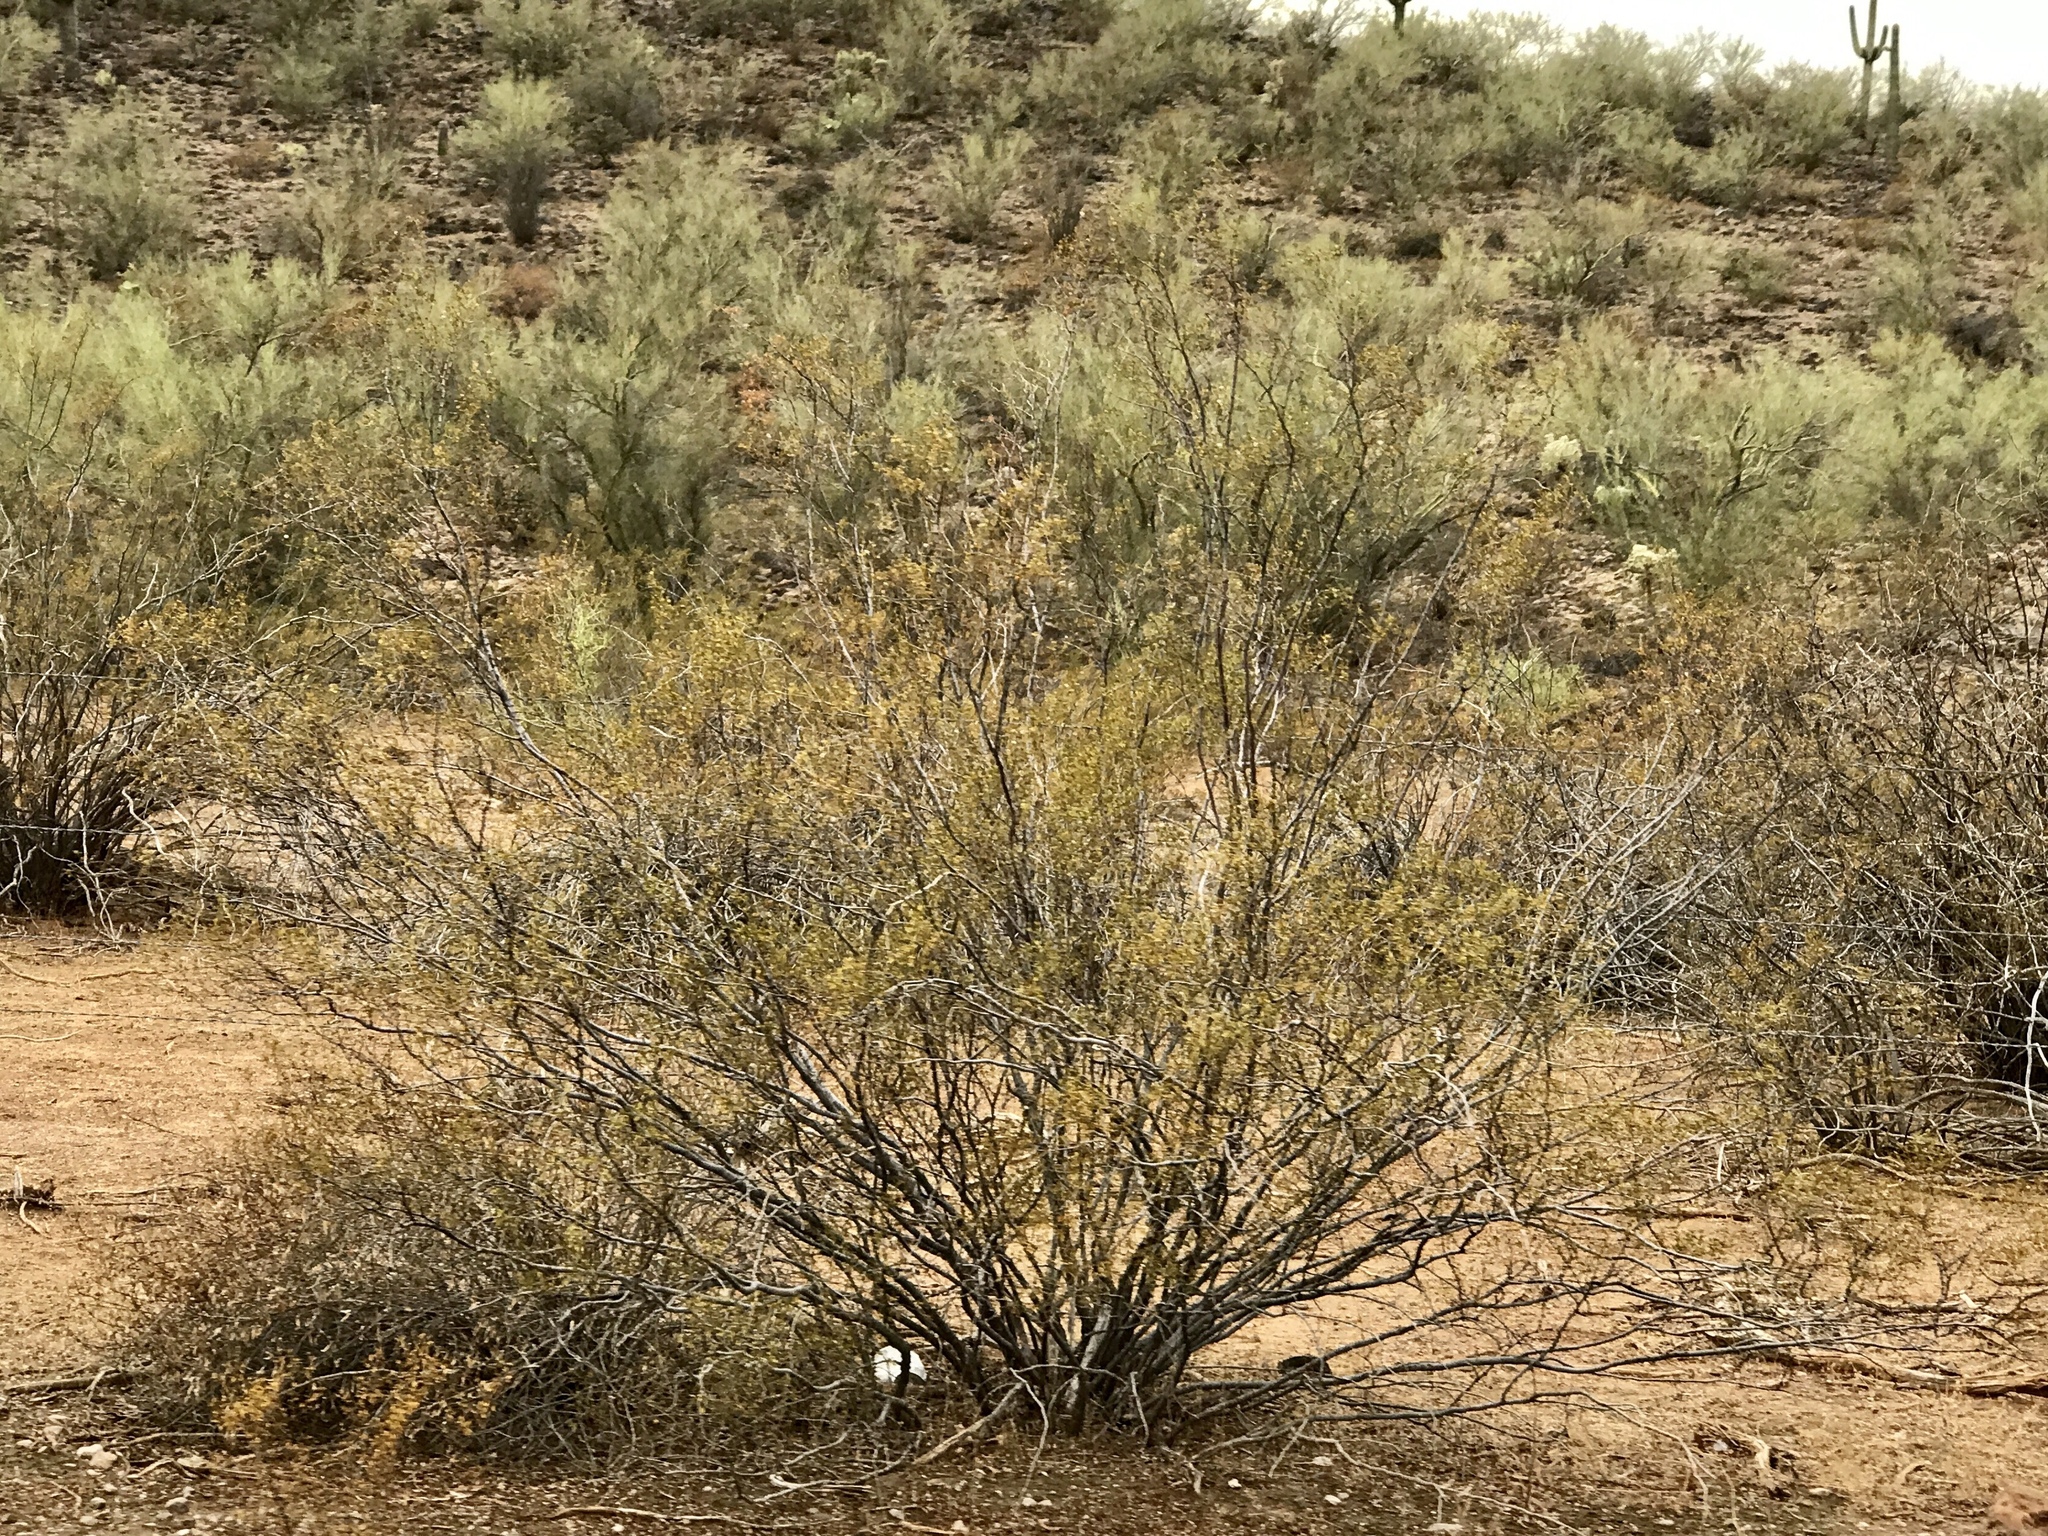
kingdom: Plantae
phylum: Tracheophyta
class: Magnoliopsida
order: Zygophyllales
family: Zygophyllaceae
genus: Larrea
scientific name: Larrea tridentata
